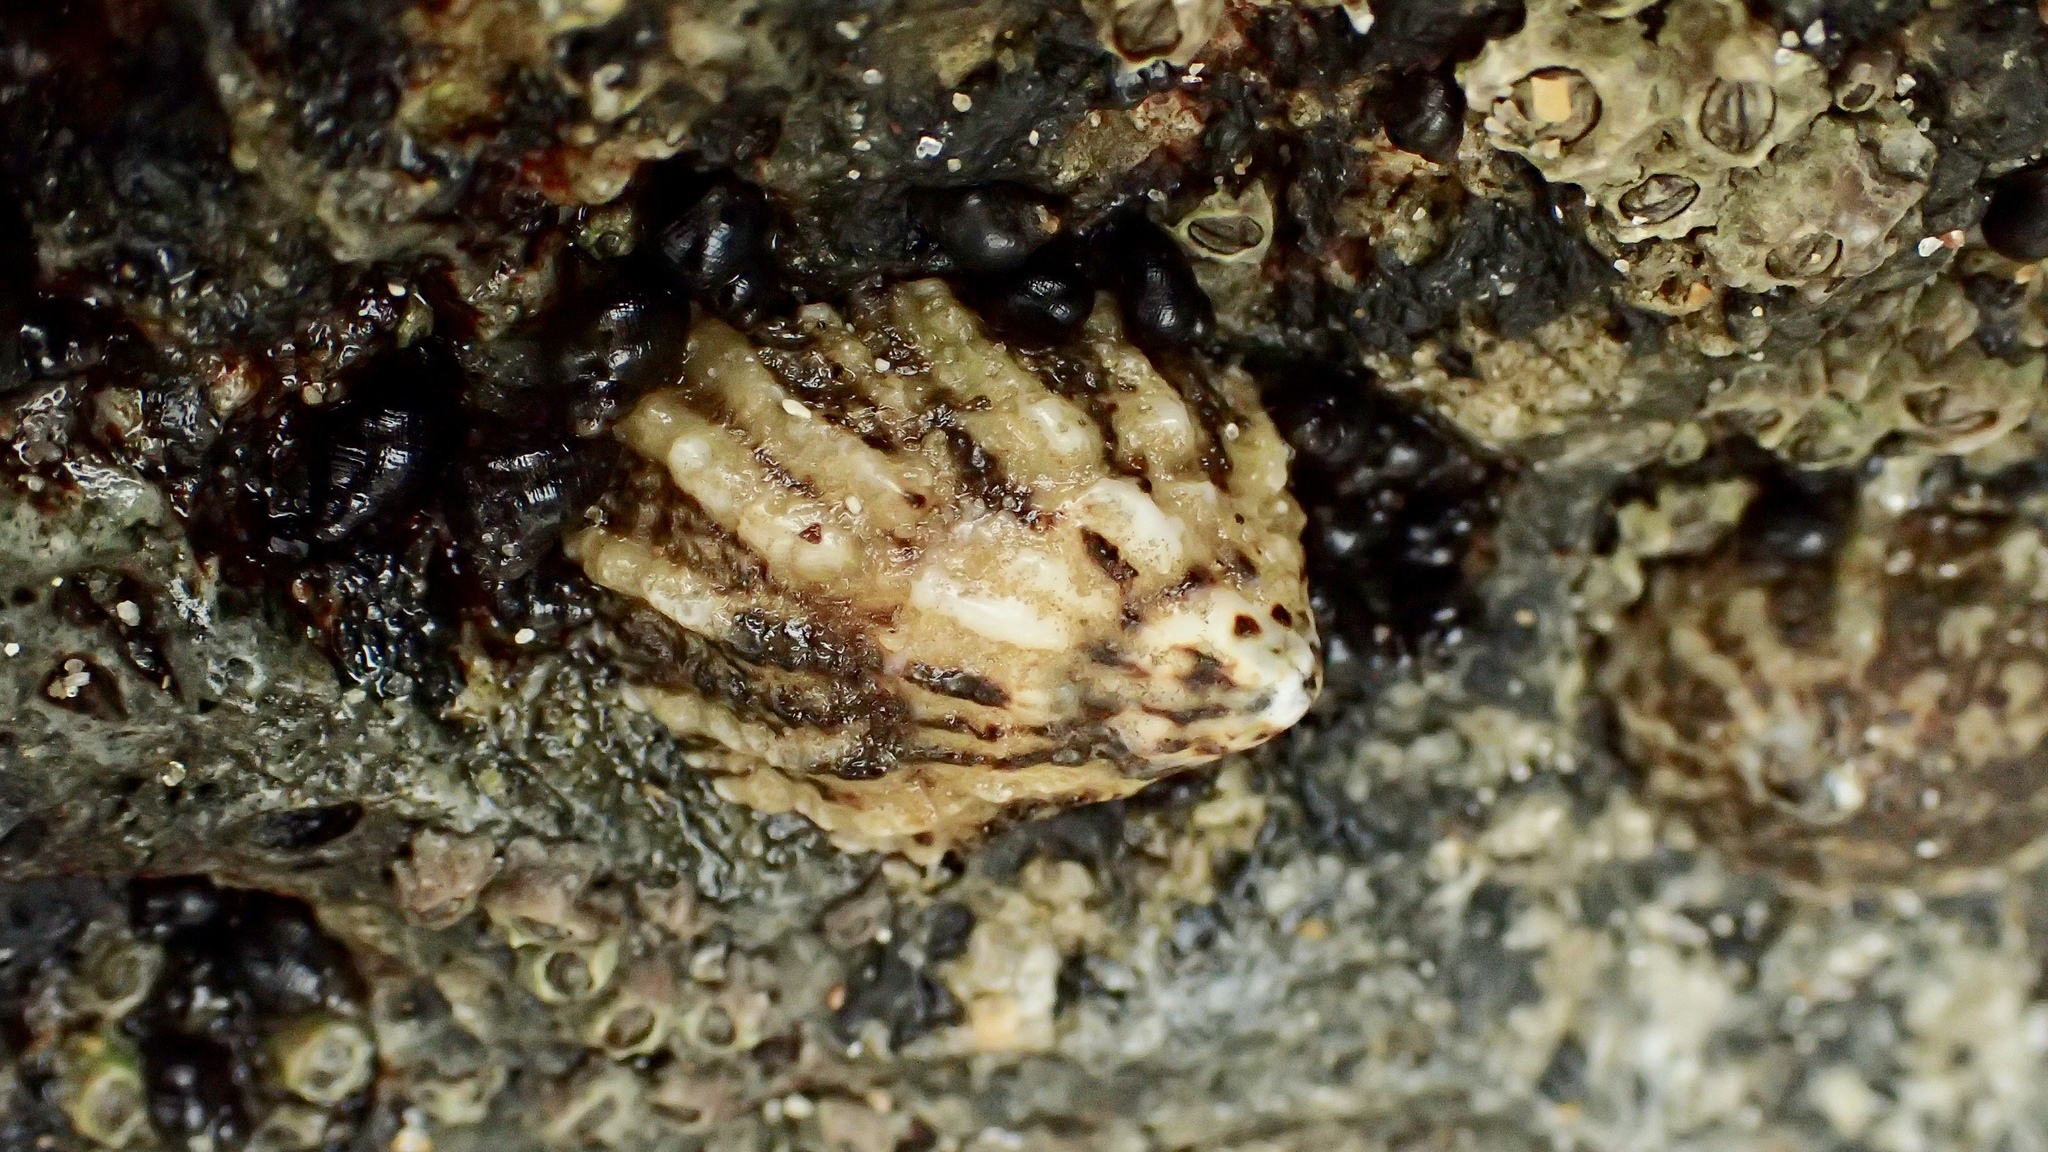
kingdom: Animalia
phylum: Mollusca
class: Gastropoda
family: Lottiidae
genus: Lottia
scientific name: Lottia scabra
